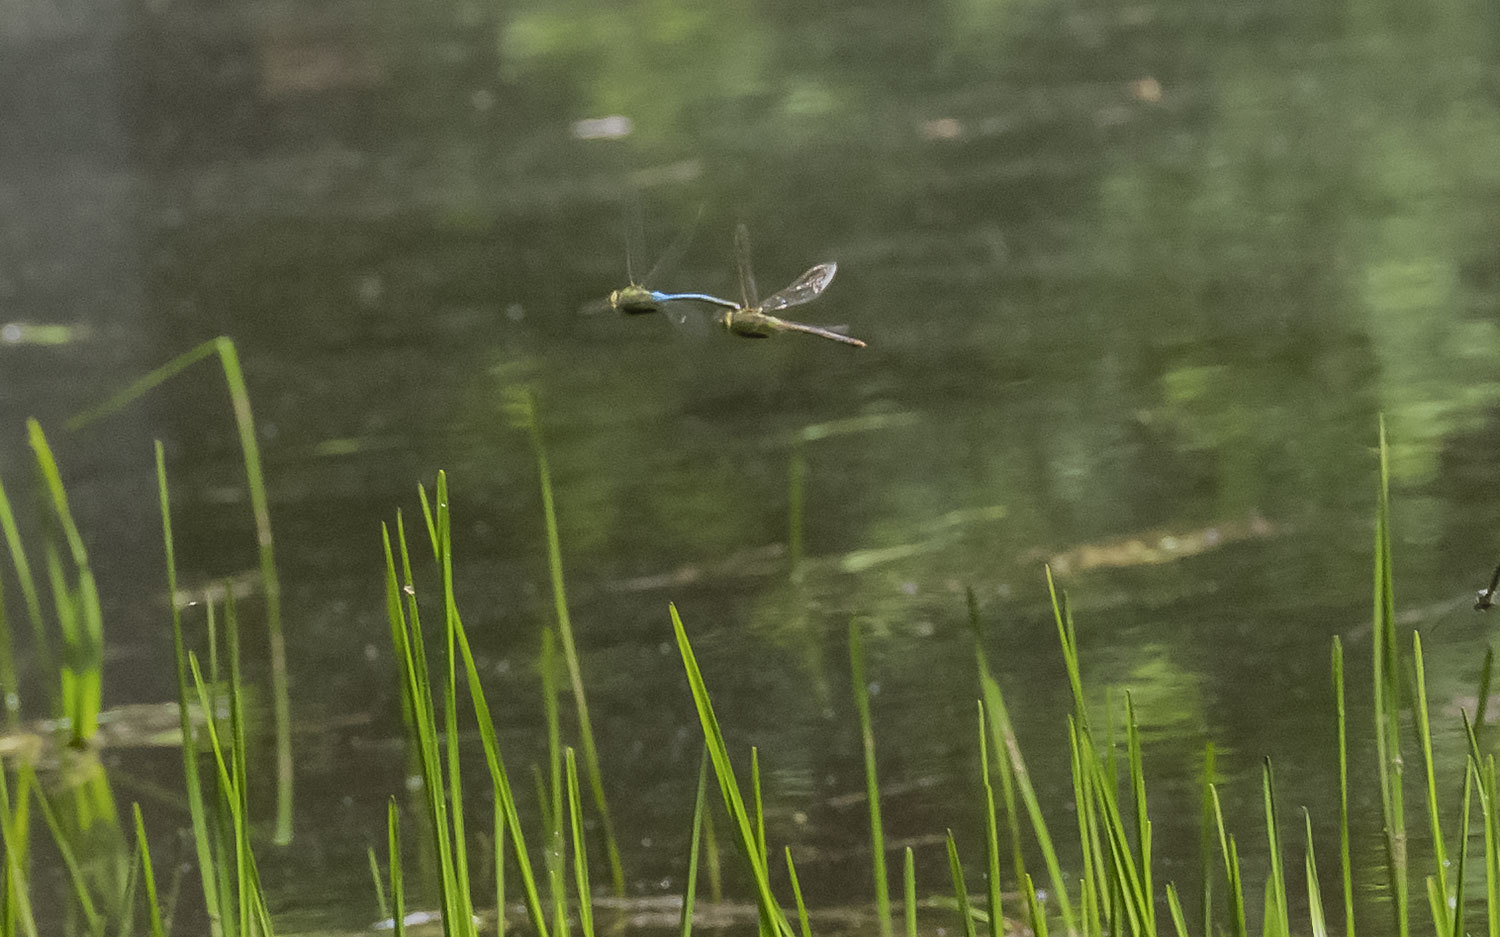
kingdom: Animalia
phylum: Arthropoda
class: Insecta
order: Odonata
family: Aeshnidae
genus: Anax
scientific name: Anax junius
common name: Common green darner
